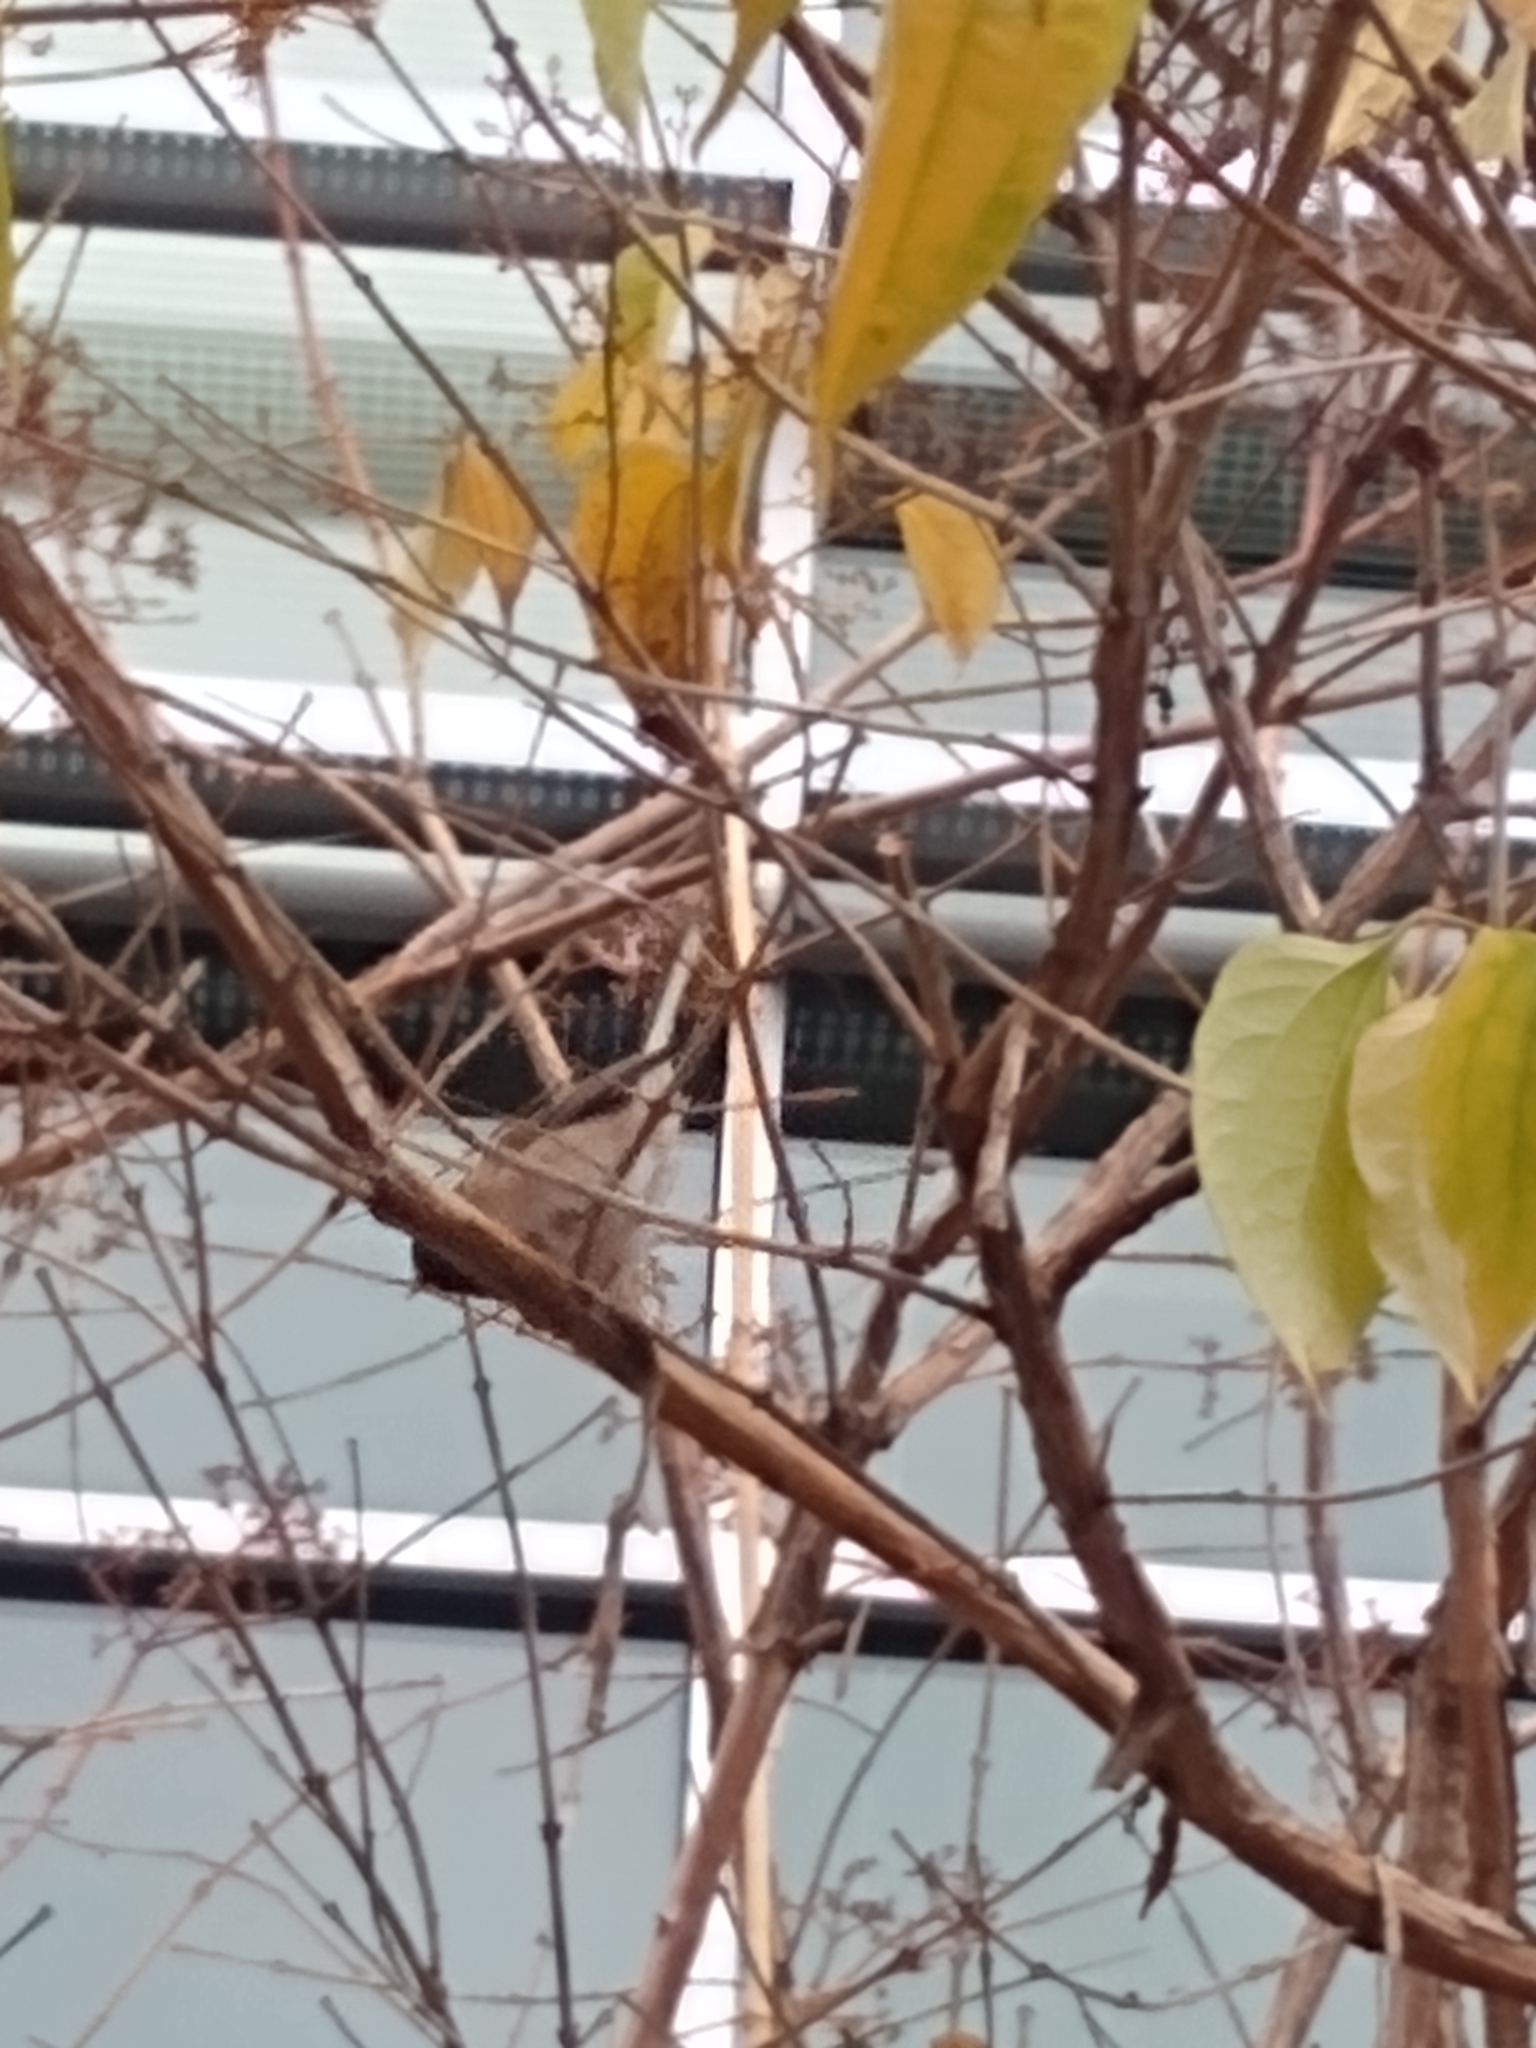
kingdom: Animalia
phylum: Chordata
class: Aves
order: Passeriformes
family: Passerellidae
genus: Junco
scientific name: Junco hyemalis
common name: Dark-eyed junco
